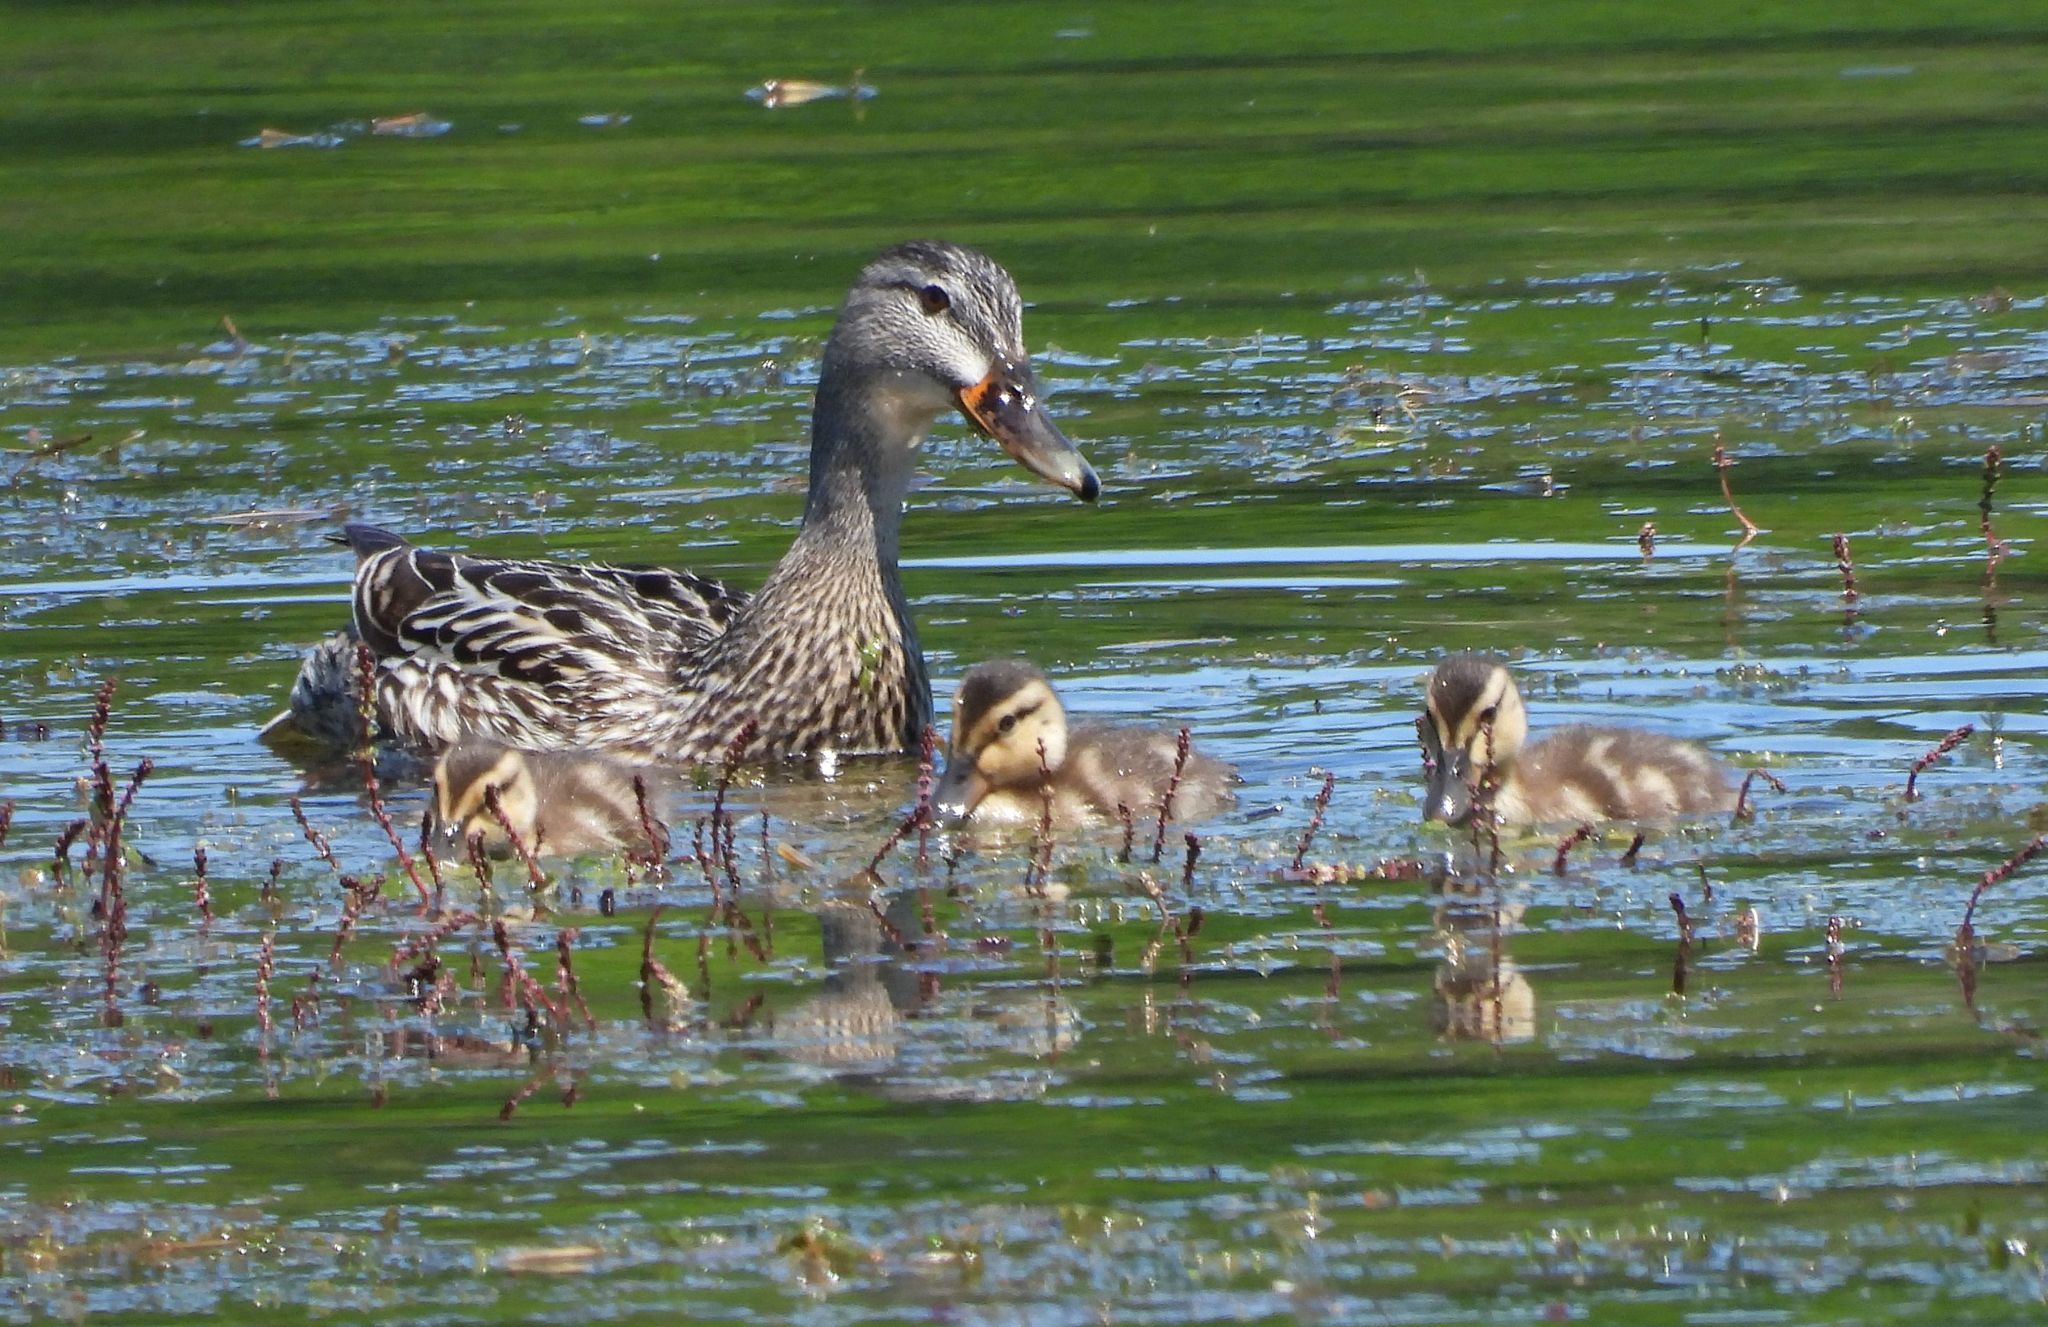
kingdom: Animalia
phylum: Chordata
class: Aves
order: Anseriformes
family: Anatidae
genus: Anas
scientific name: Anas platyrhynchos
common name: Mallard
